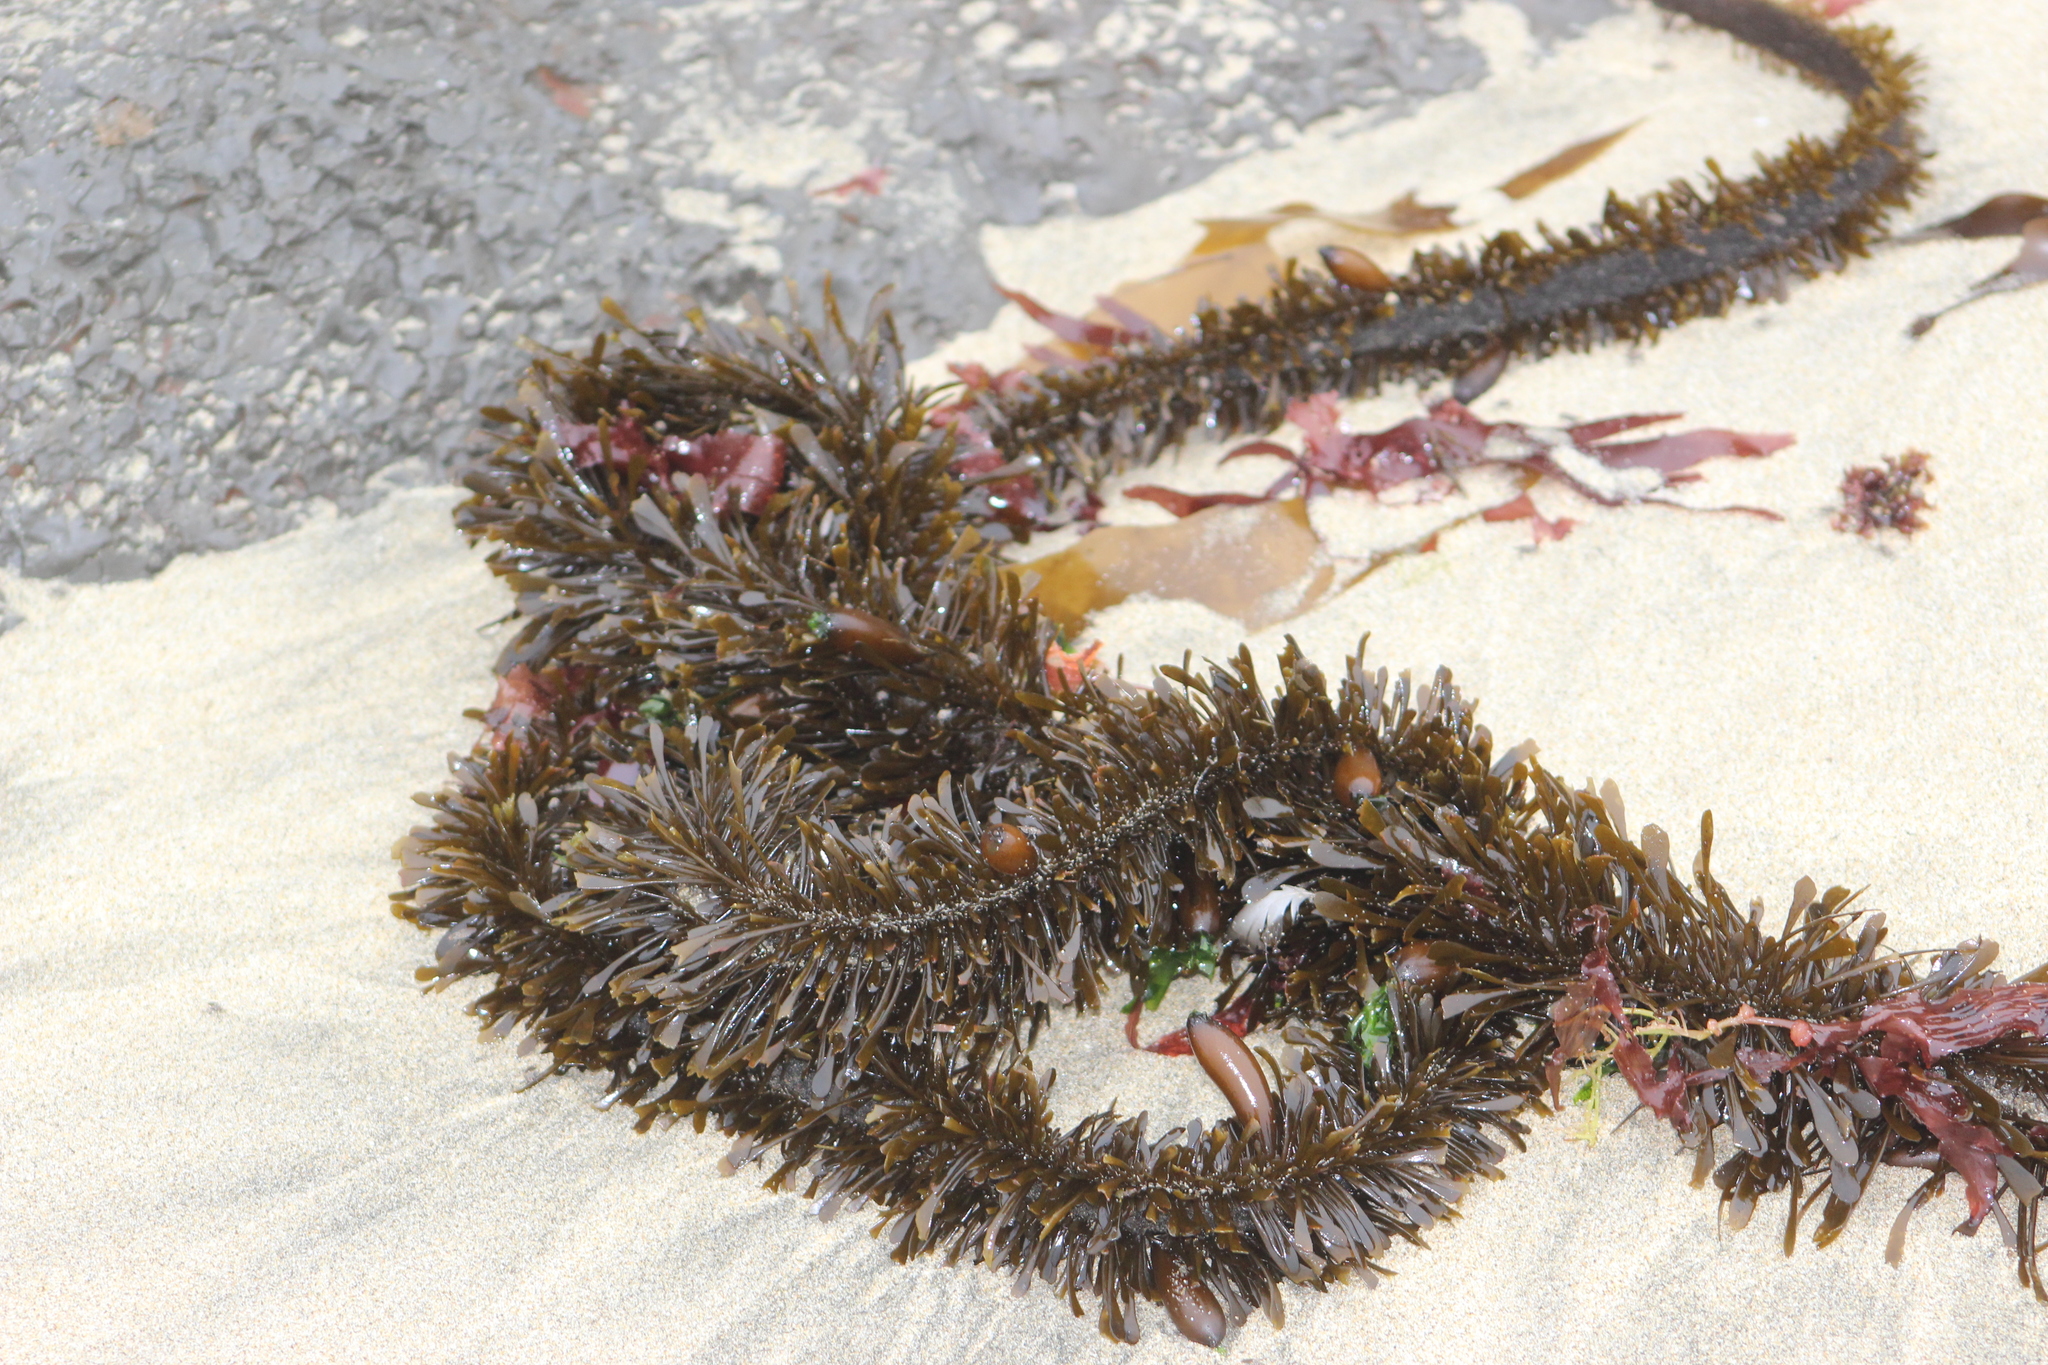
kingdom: Chromista
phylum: Ochrophyta
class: Phaeophyceae
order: Laminariales
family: Lessoniaceae
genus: Egregia
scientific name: Egregia menziesii
